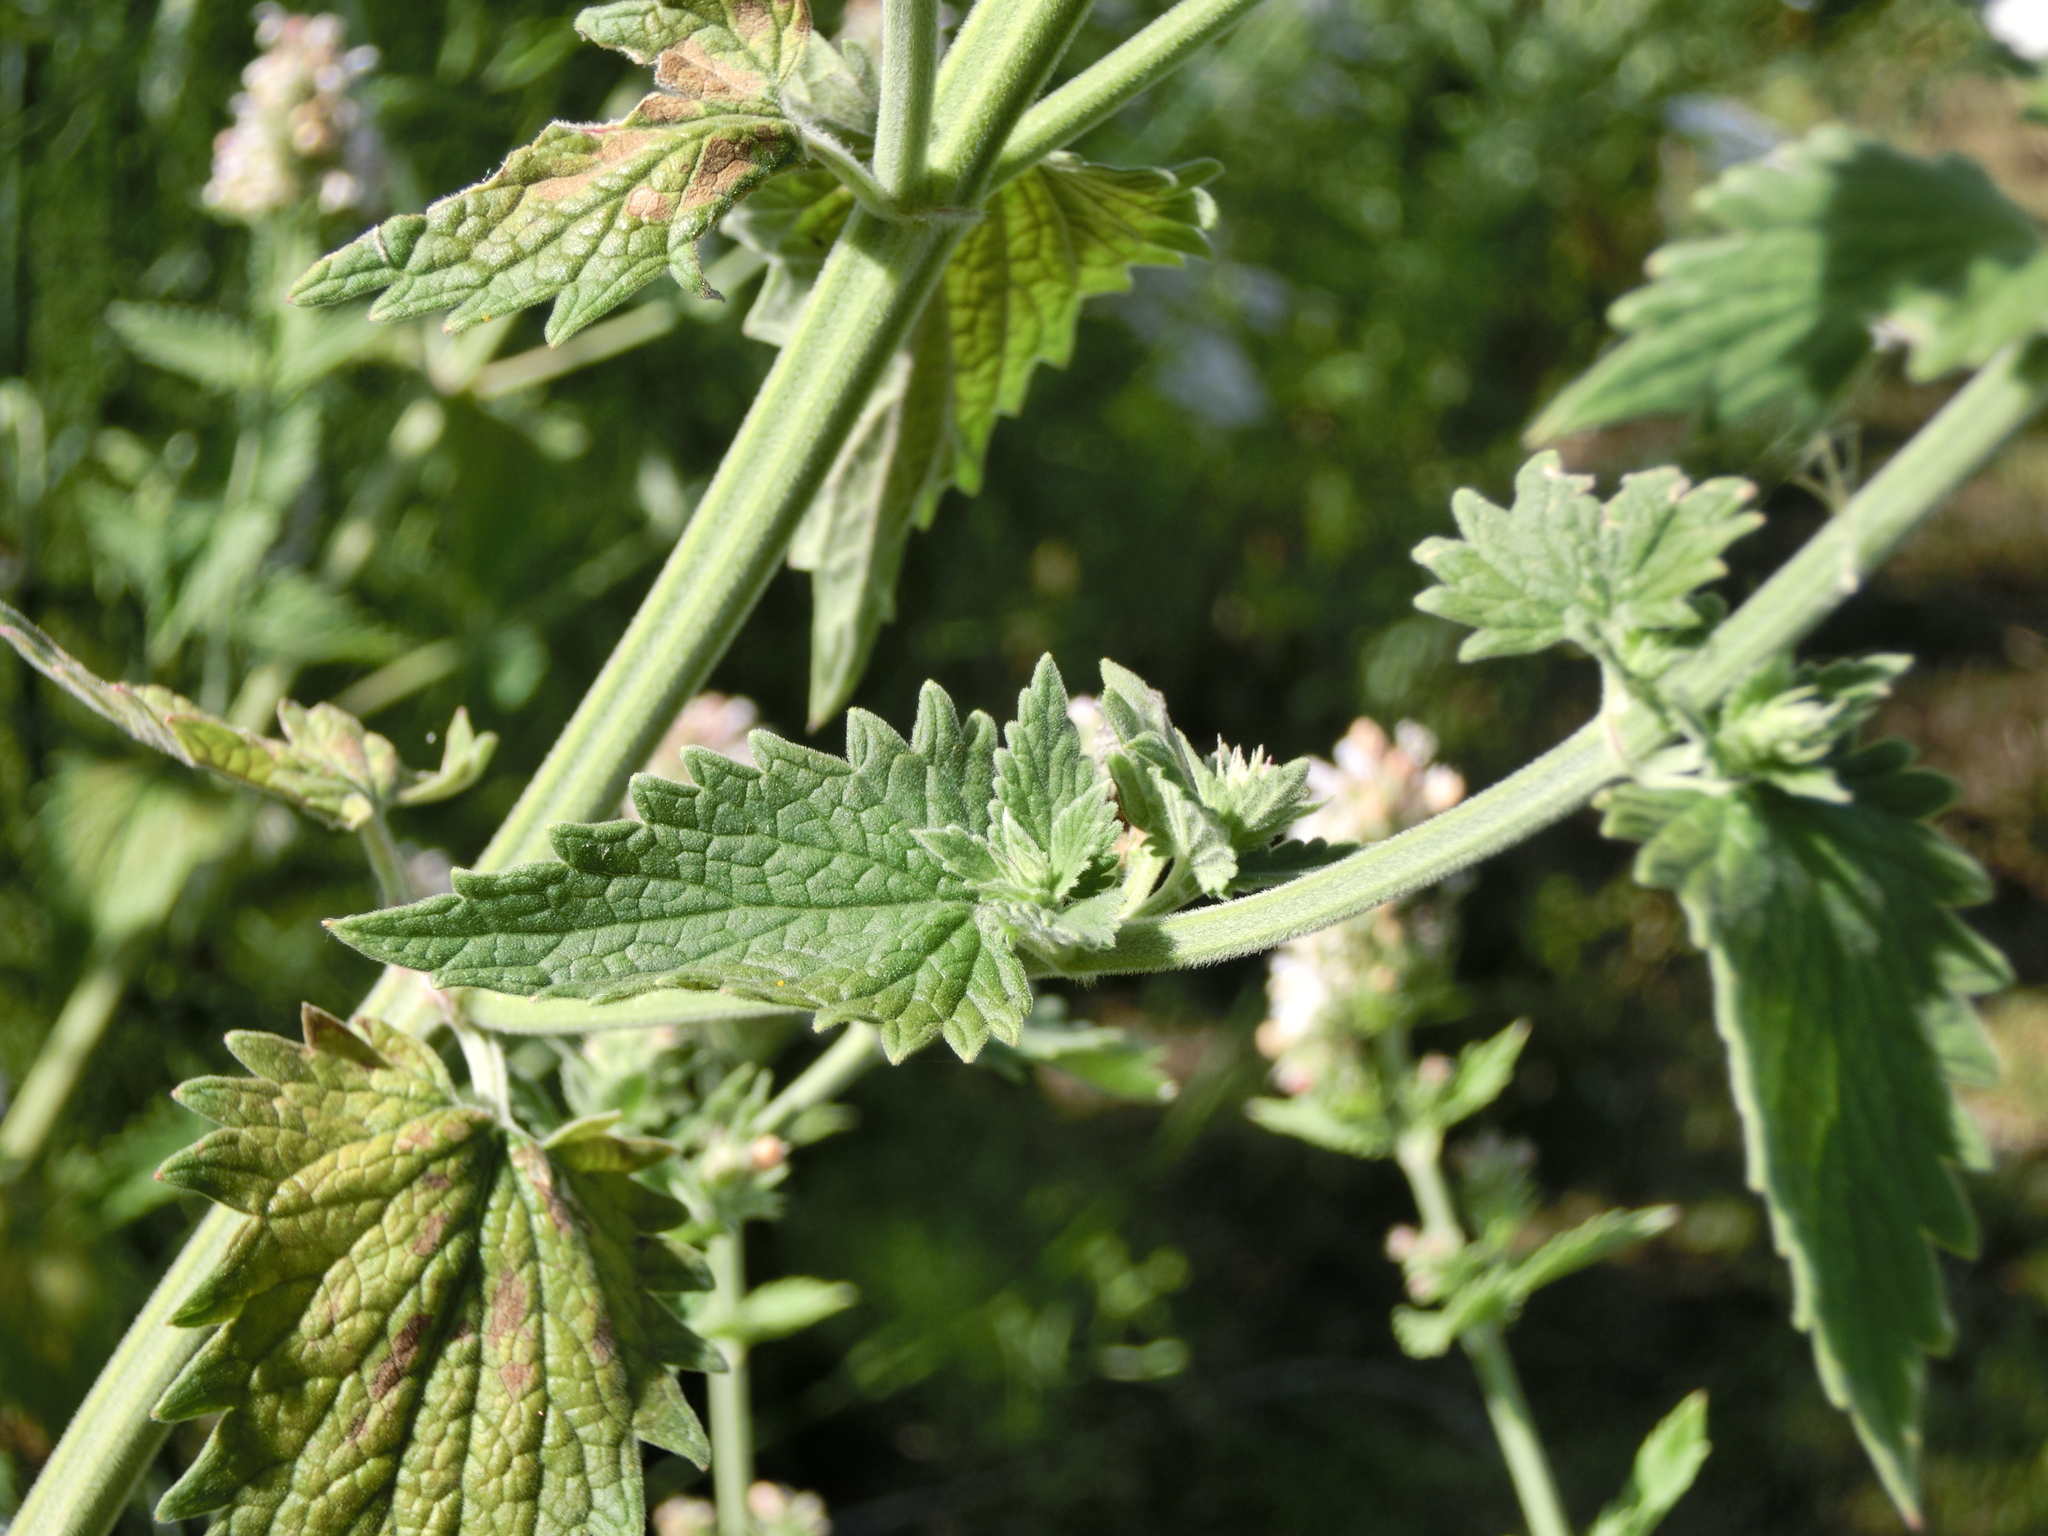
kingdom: Plantae
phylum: Tracheophyta
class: Magnoliopsida
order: Lamiales
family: Lamiaceae
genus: Nepeta
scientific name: Nepeta cataria
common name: Catnip
